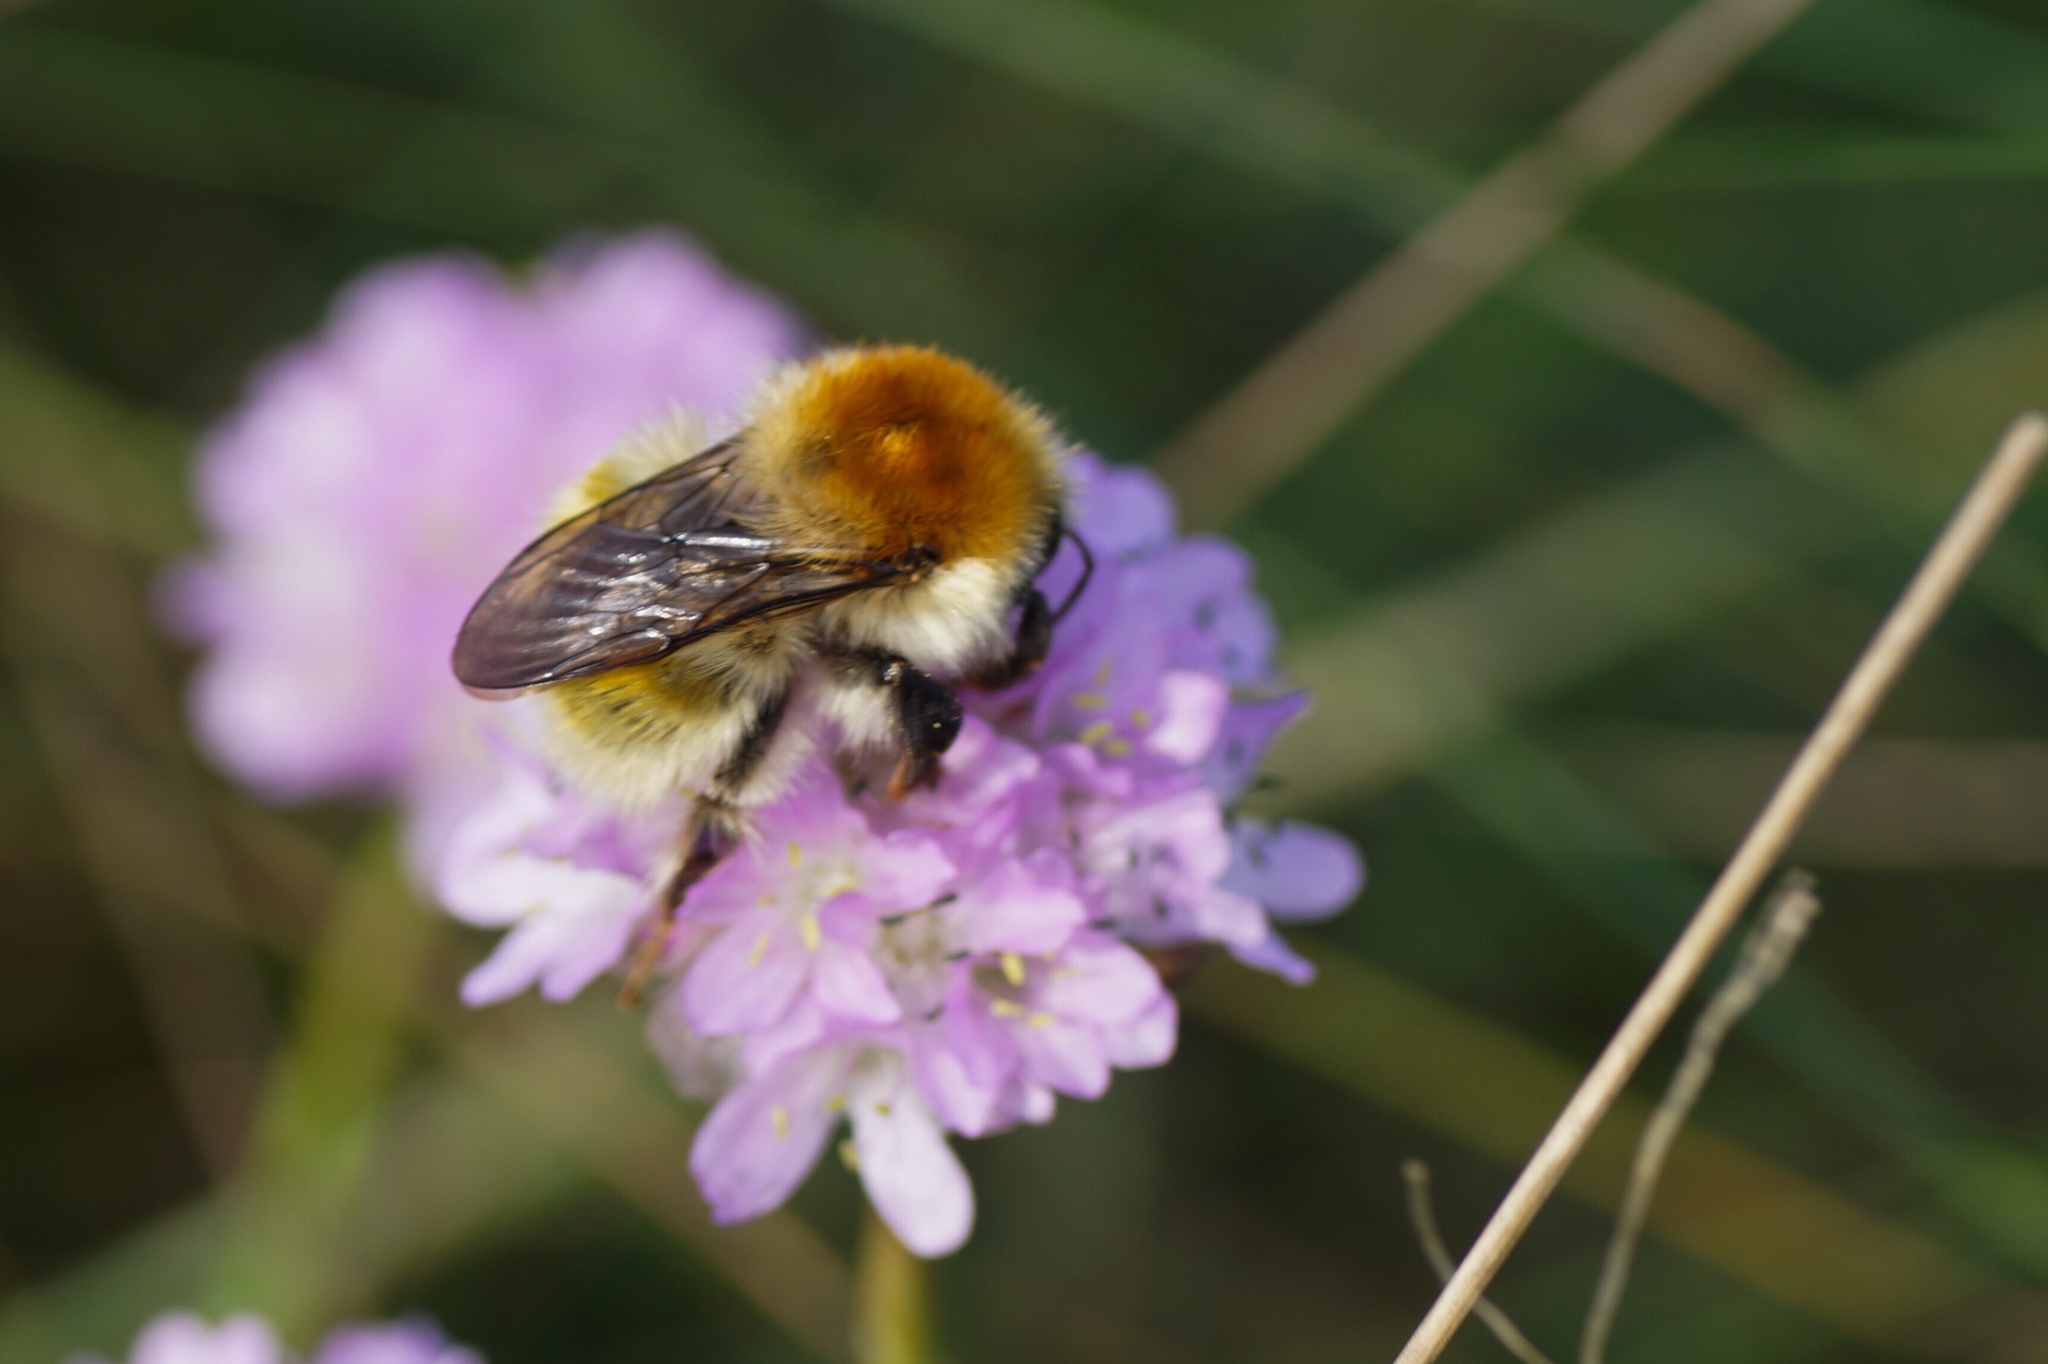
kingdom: Animalia
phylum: Arthropoda
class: Insecta
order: Hymenoptera
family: Apidae
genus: Bombus
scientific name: Bombus muscorum
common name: Moss carder-bee
